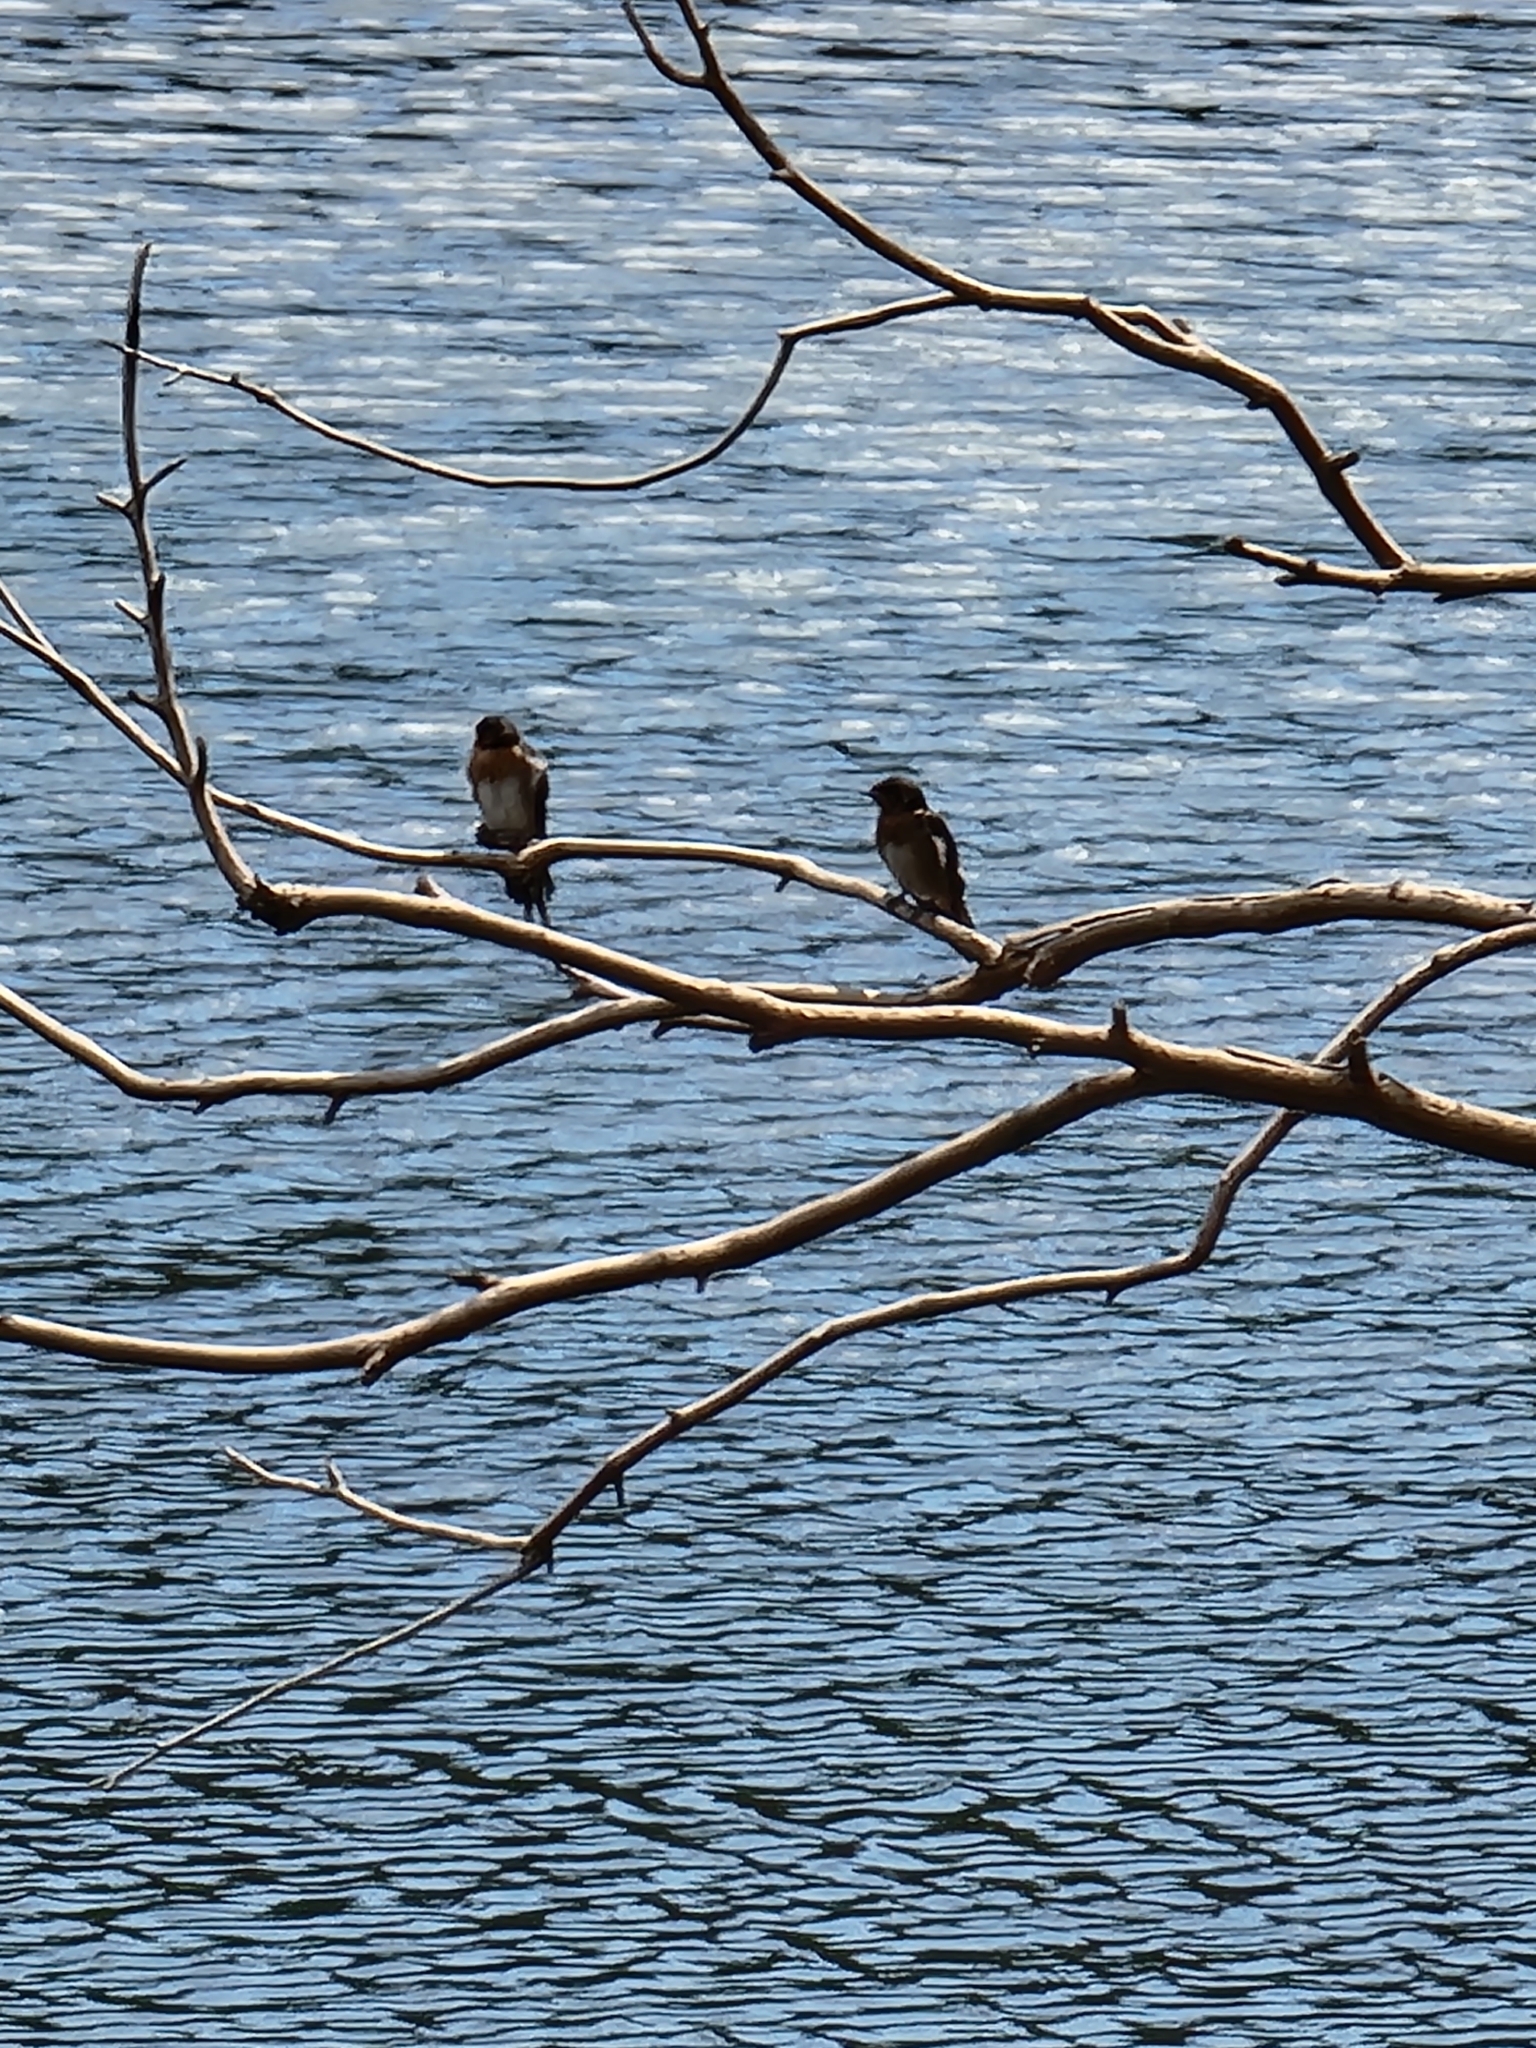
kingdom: Animalia
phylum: Chordata
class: Aves
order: Passeriformes
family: Hirundinidae
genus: Hirundo
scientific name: Hirundo neoxena
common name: Welcome swallow
